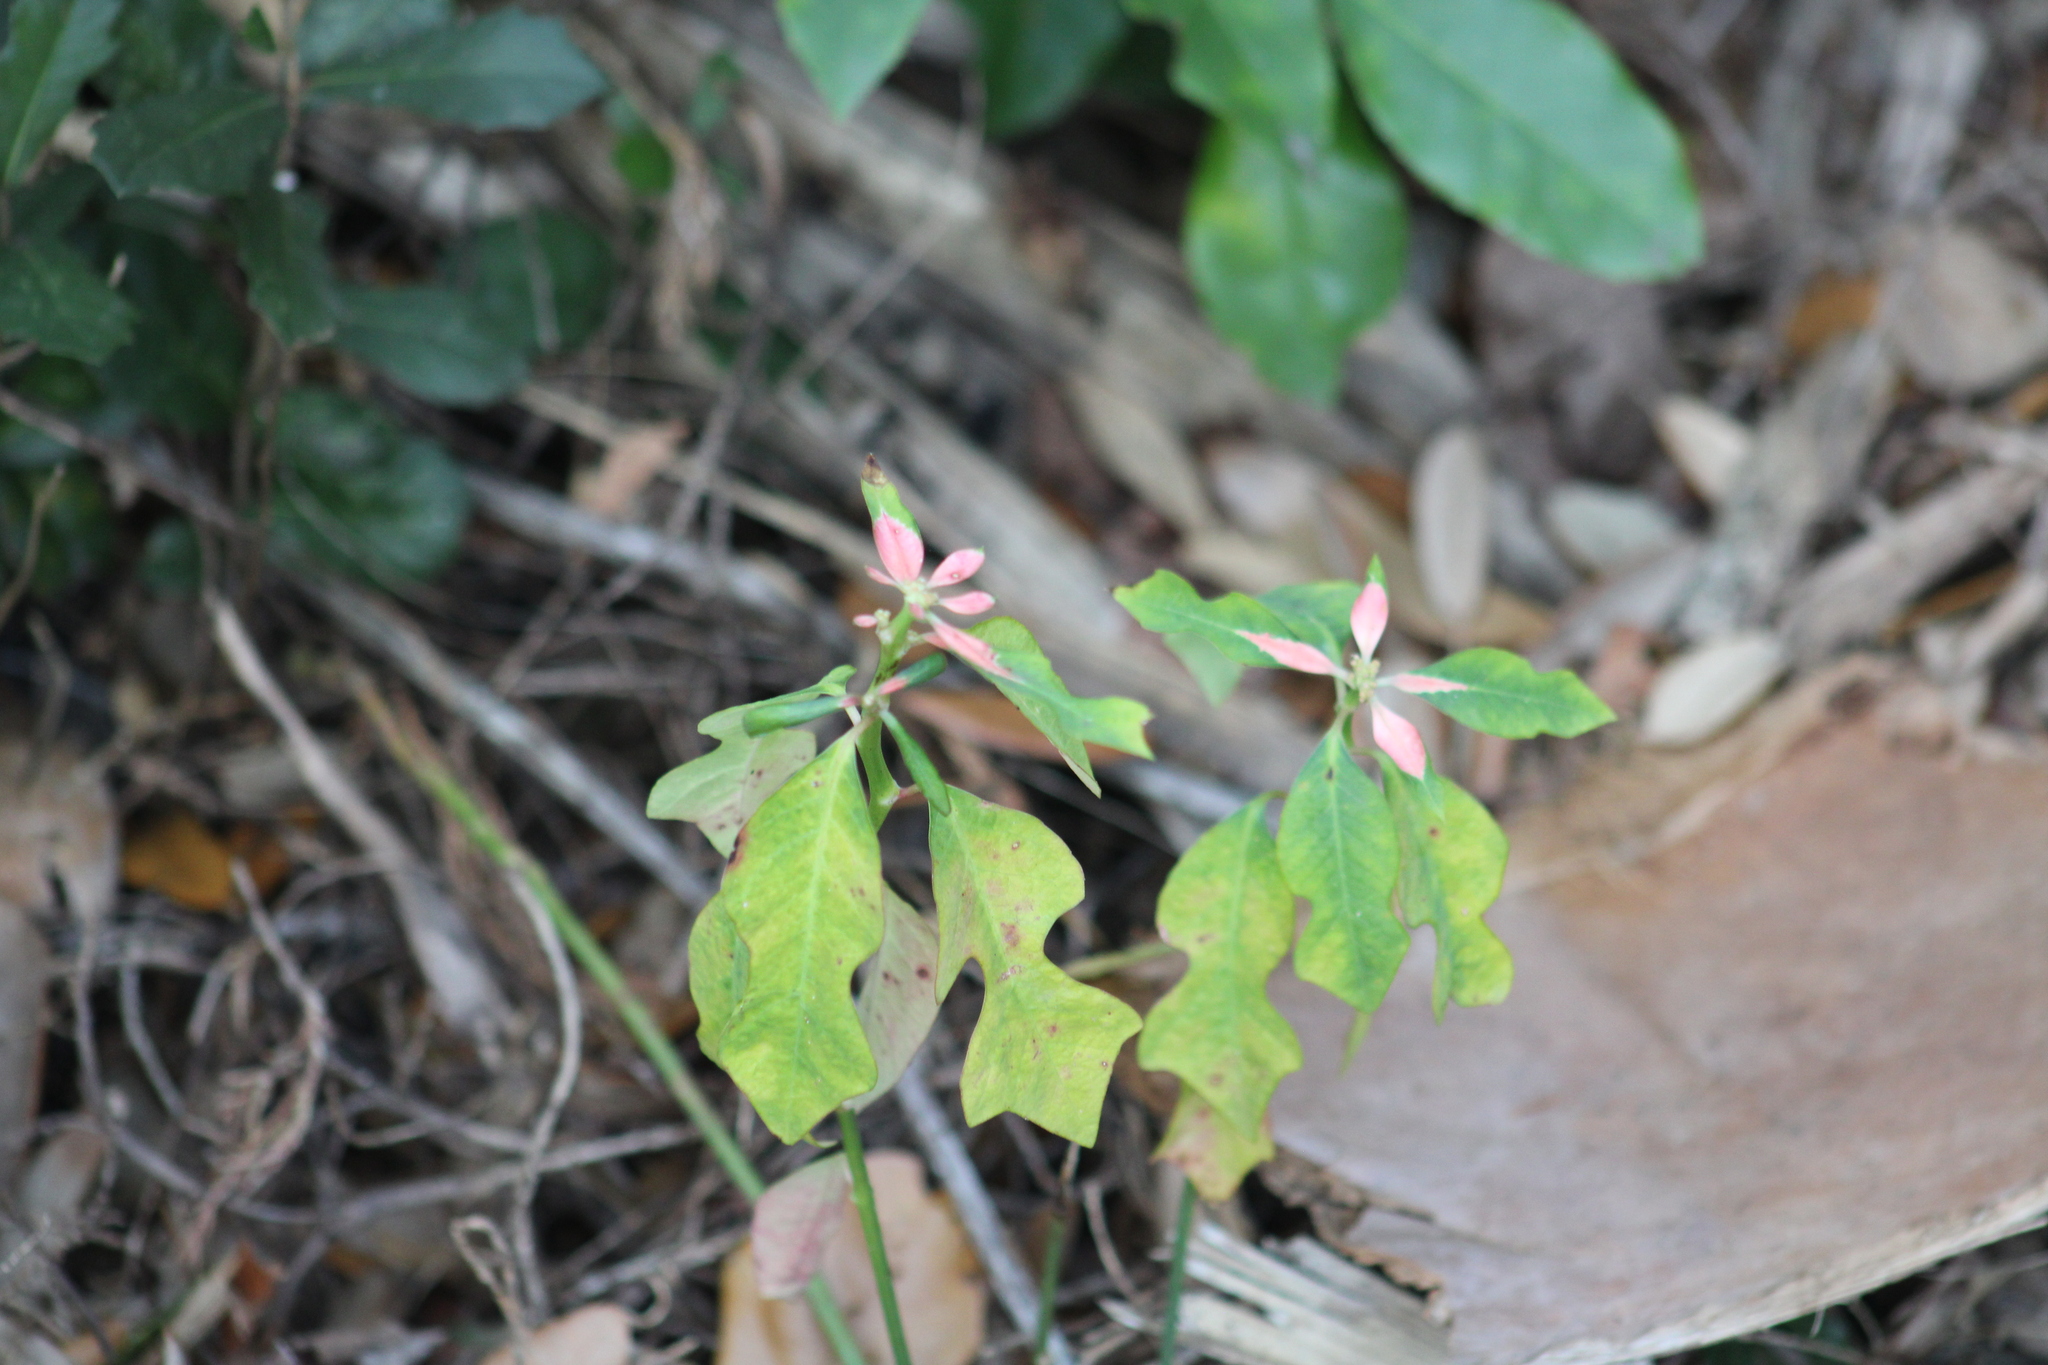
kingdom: Plantae
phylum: Tracheophyta
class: Magnoliopsida
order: Malpighiales
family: Euphorbiaceae
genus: Euphorbia
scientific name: Euphorbia heterophylla
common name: Mexican fireplant
